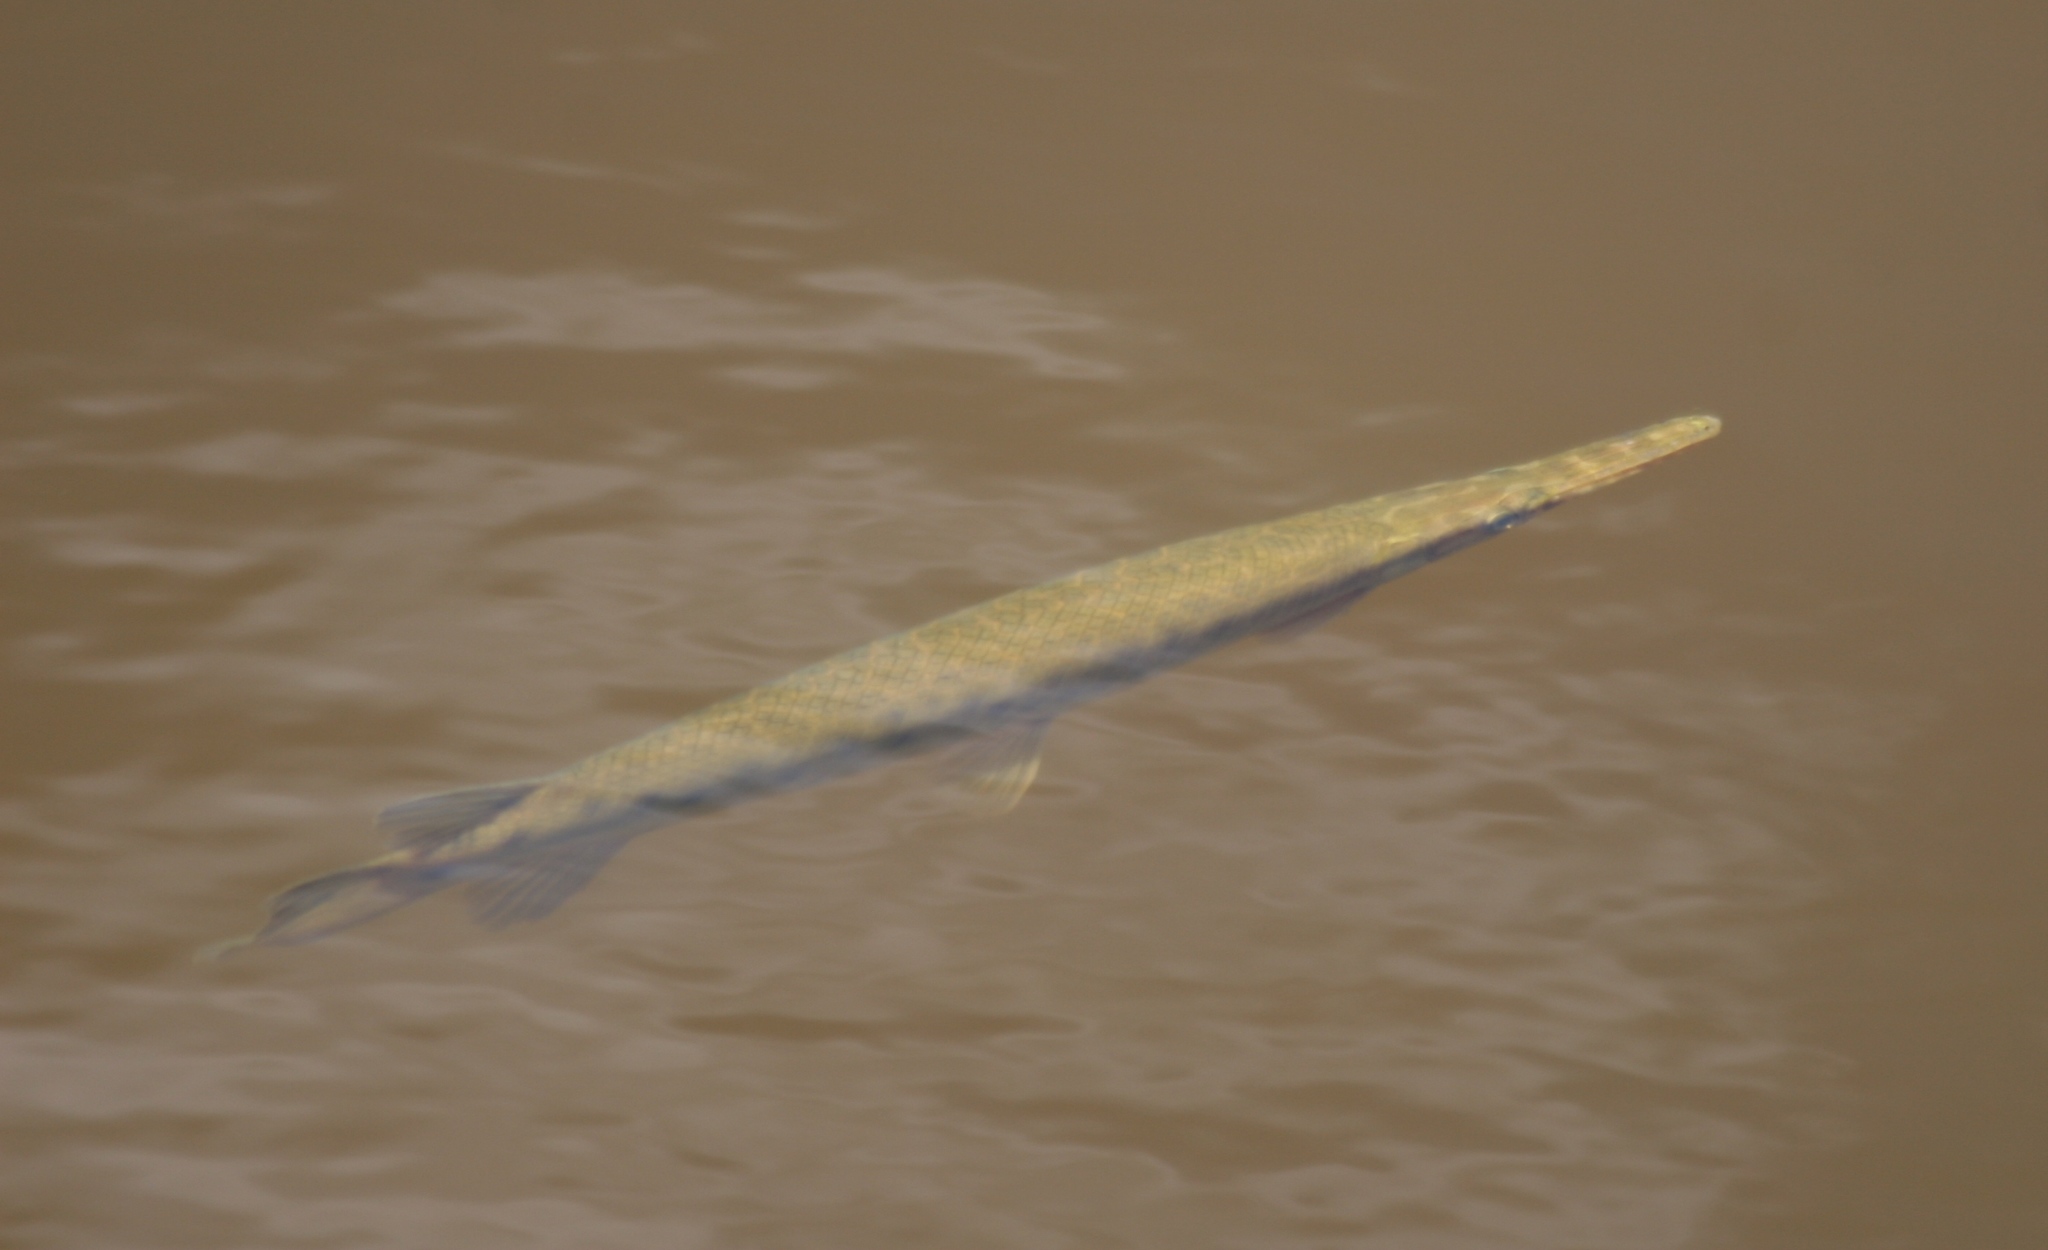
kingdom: Animalia
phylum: Chordata
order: Lepisosteiformes
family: Lepisosteidae
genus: Lepisosteus
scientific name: Lepisosteus platyrhincus
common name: Florida gar
